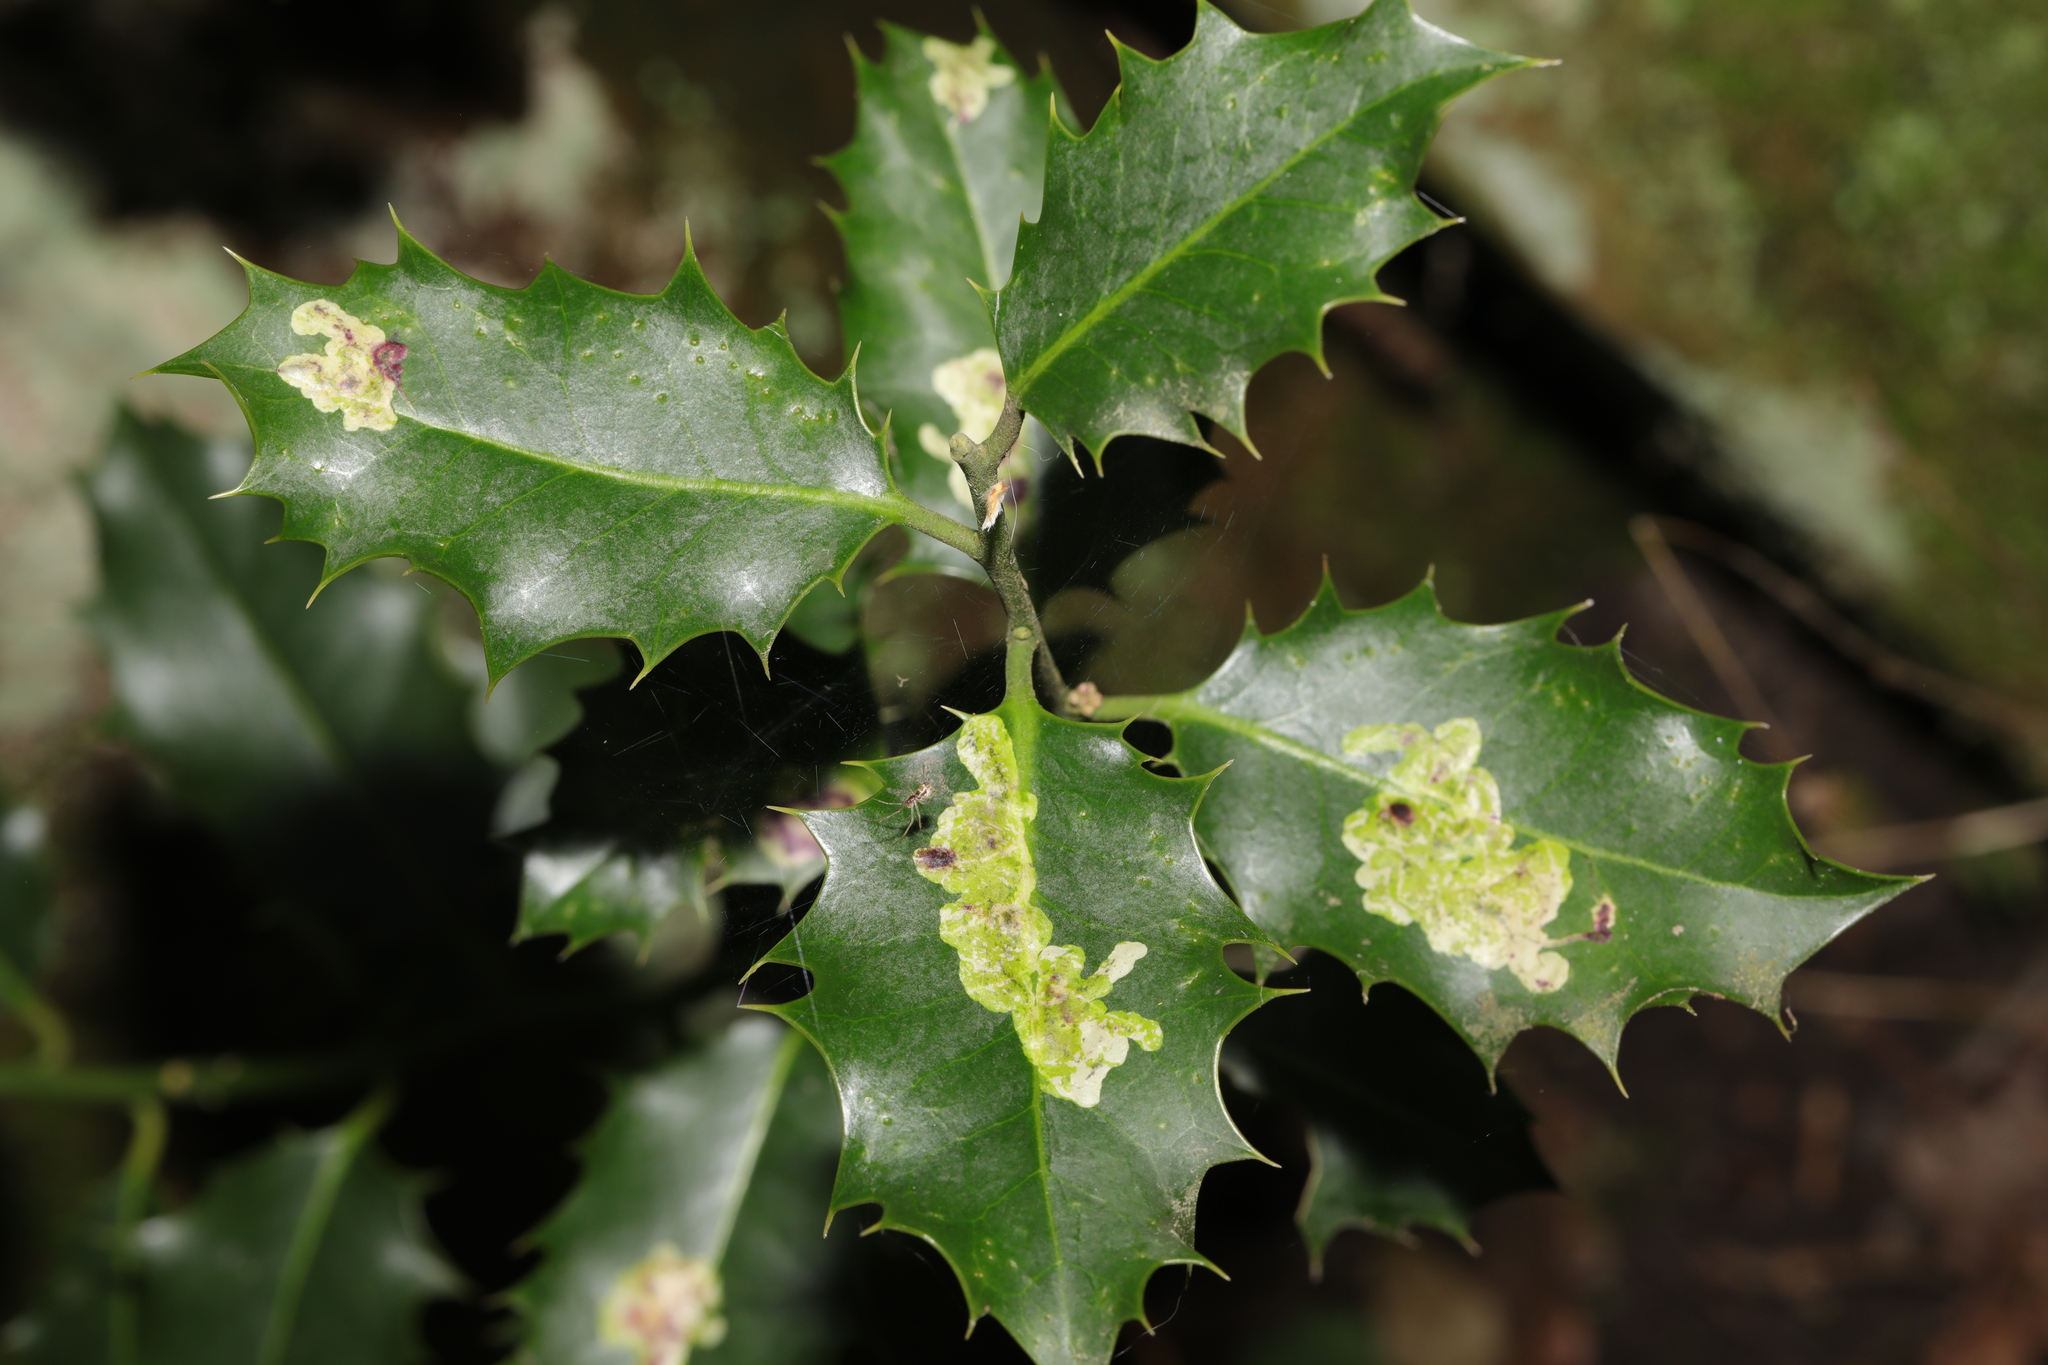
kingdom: Animalia
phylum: Arthropoda
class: Insecta
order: Diptera
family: Agromyzidae
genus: Phytomyza
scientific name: Phytomyza ilicis
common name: Holly leafminer
